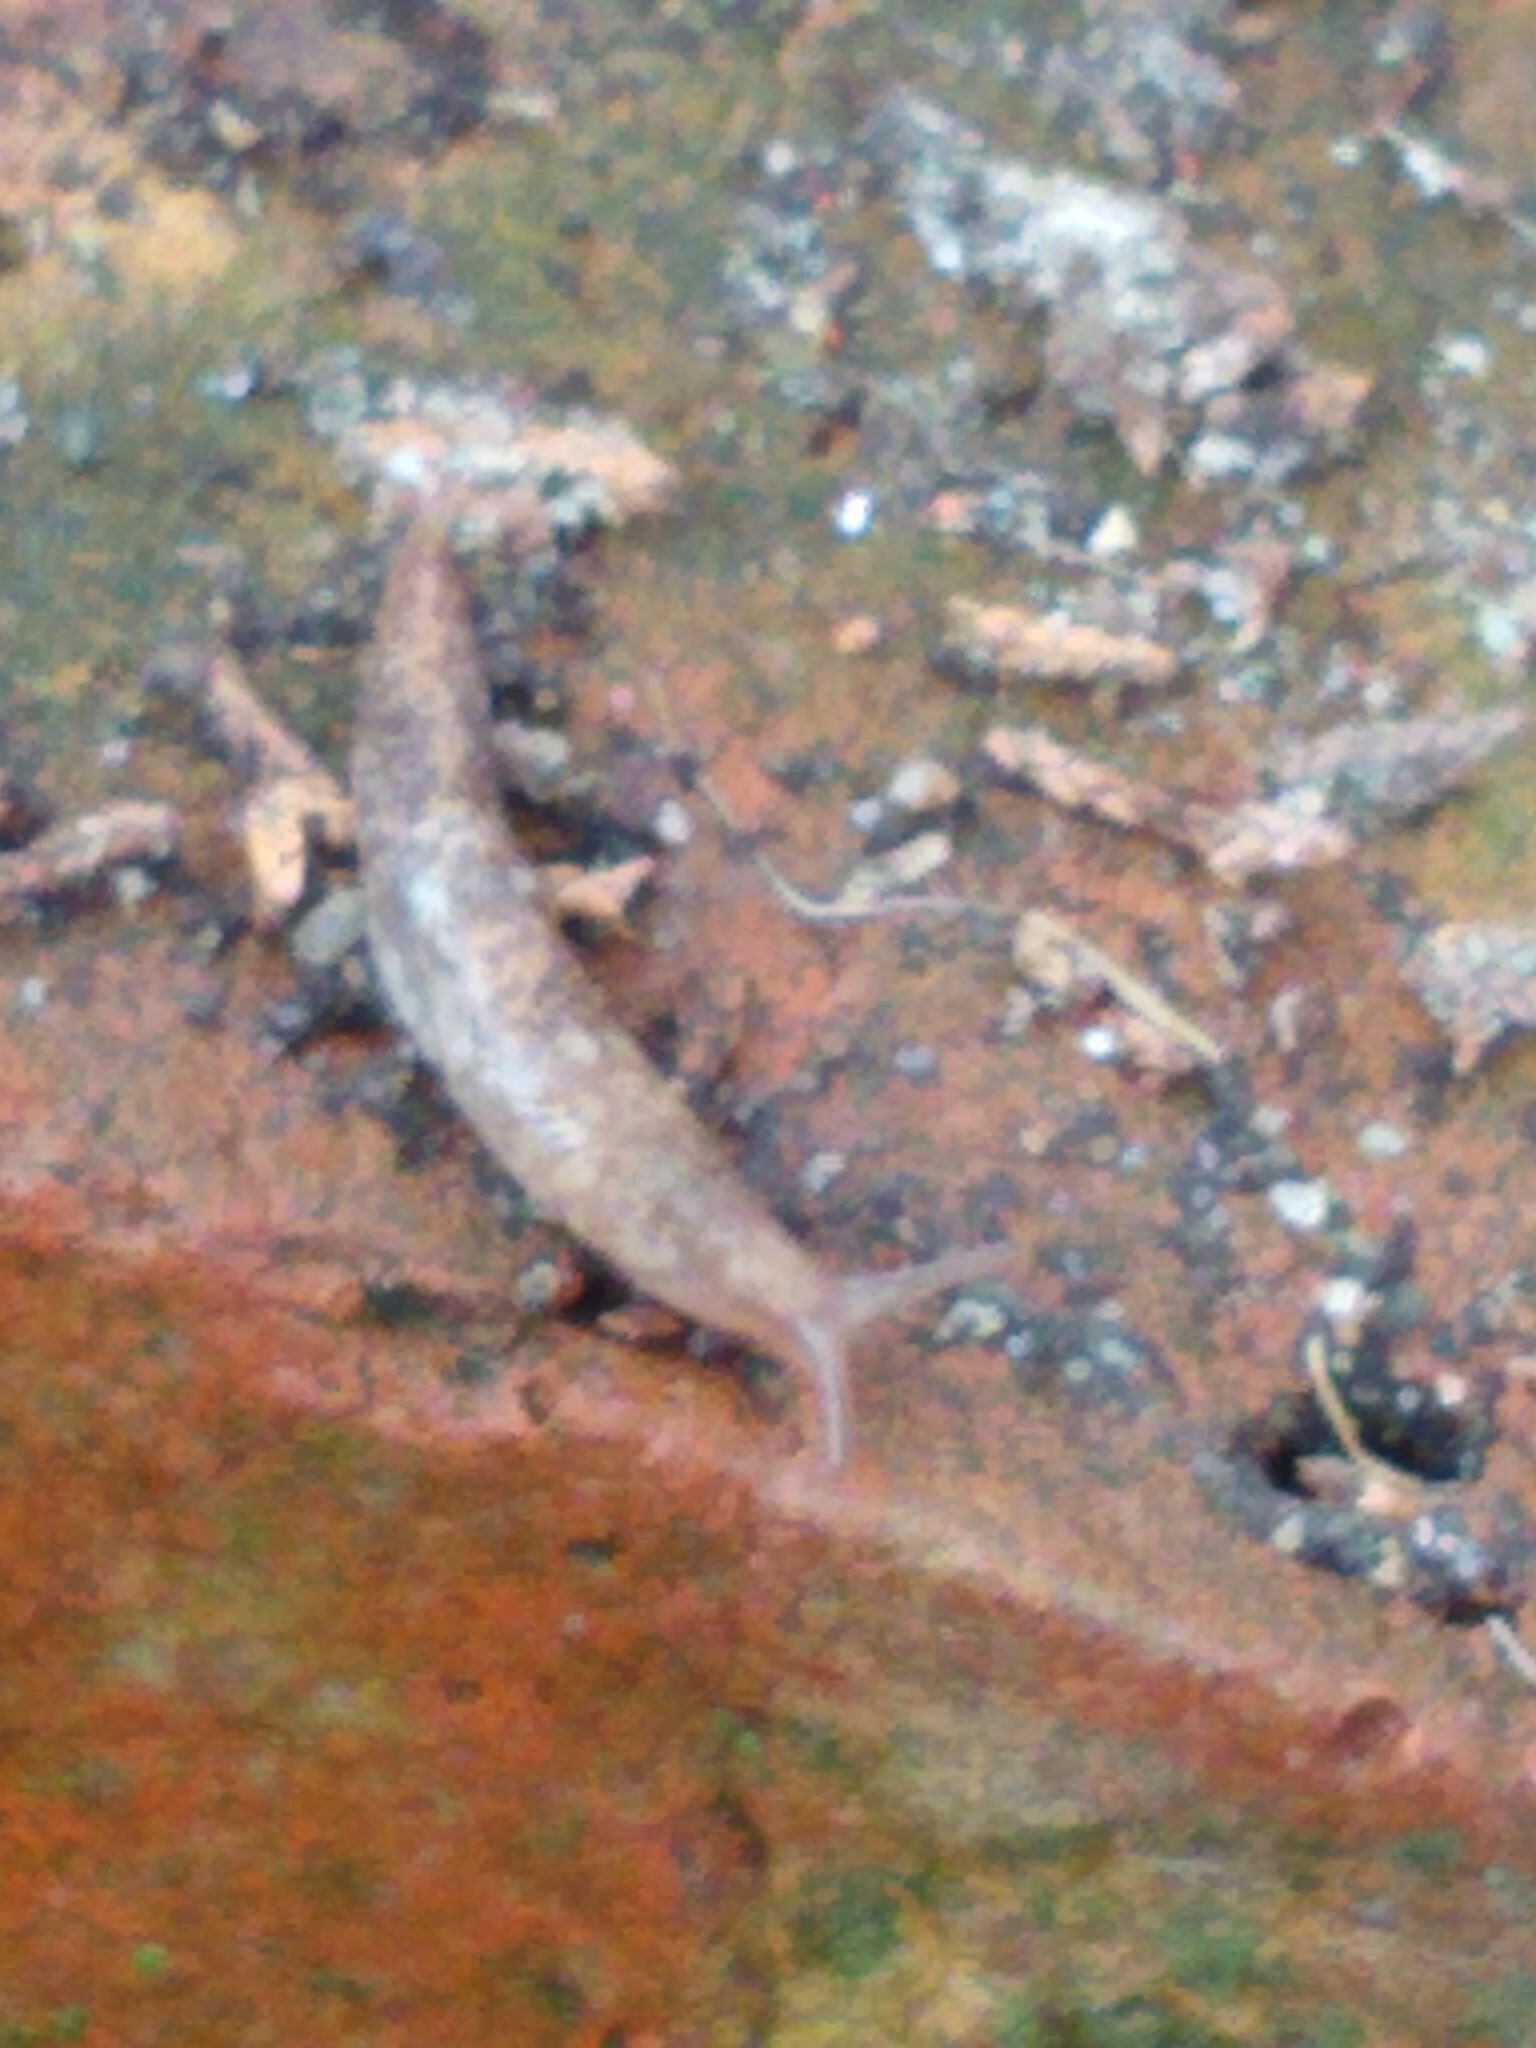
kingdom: Animalia
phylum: Mollusca
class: Gastropoda
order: Stylommatophora
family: Agriolimacidae
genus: Deroceras
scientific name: Deroceras reticulatum
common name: Gray field slug
